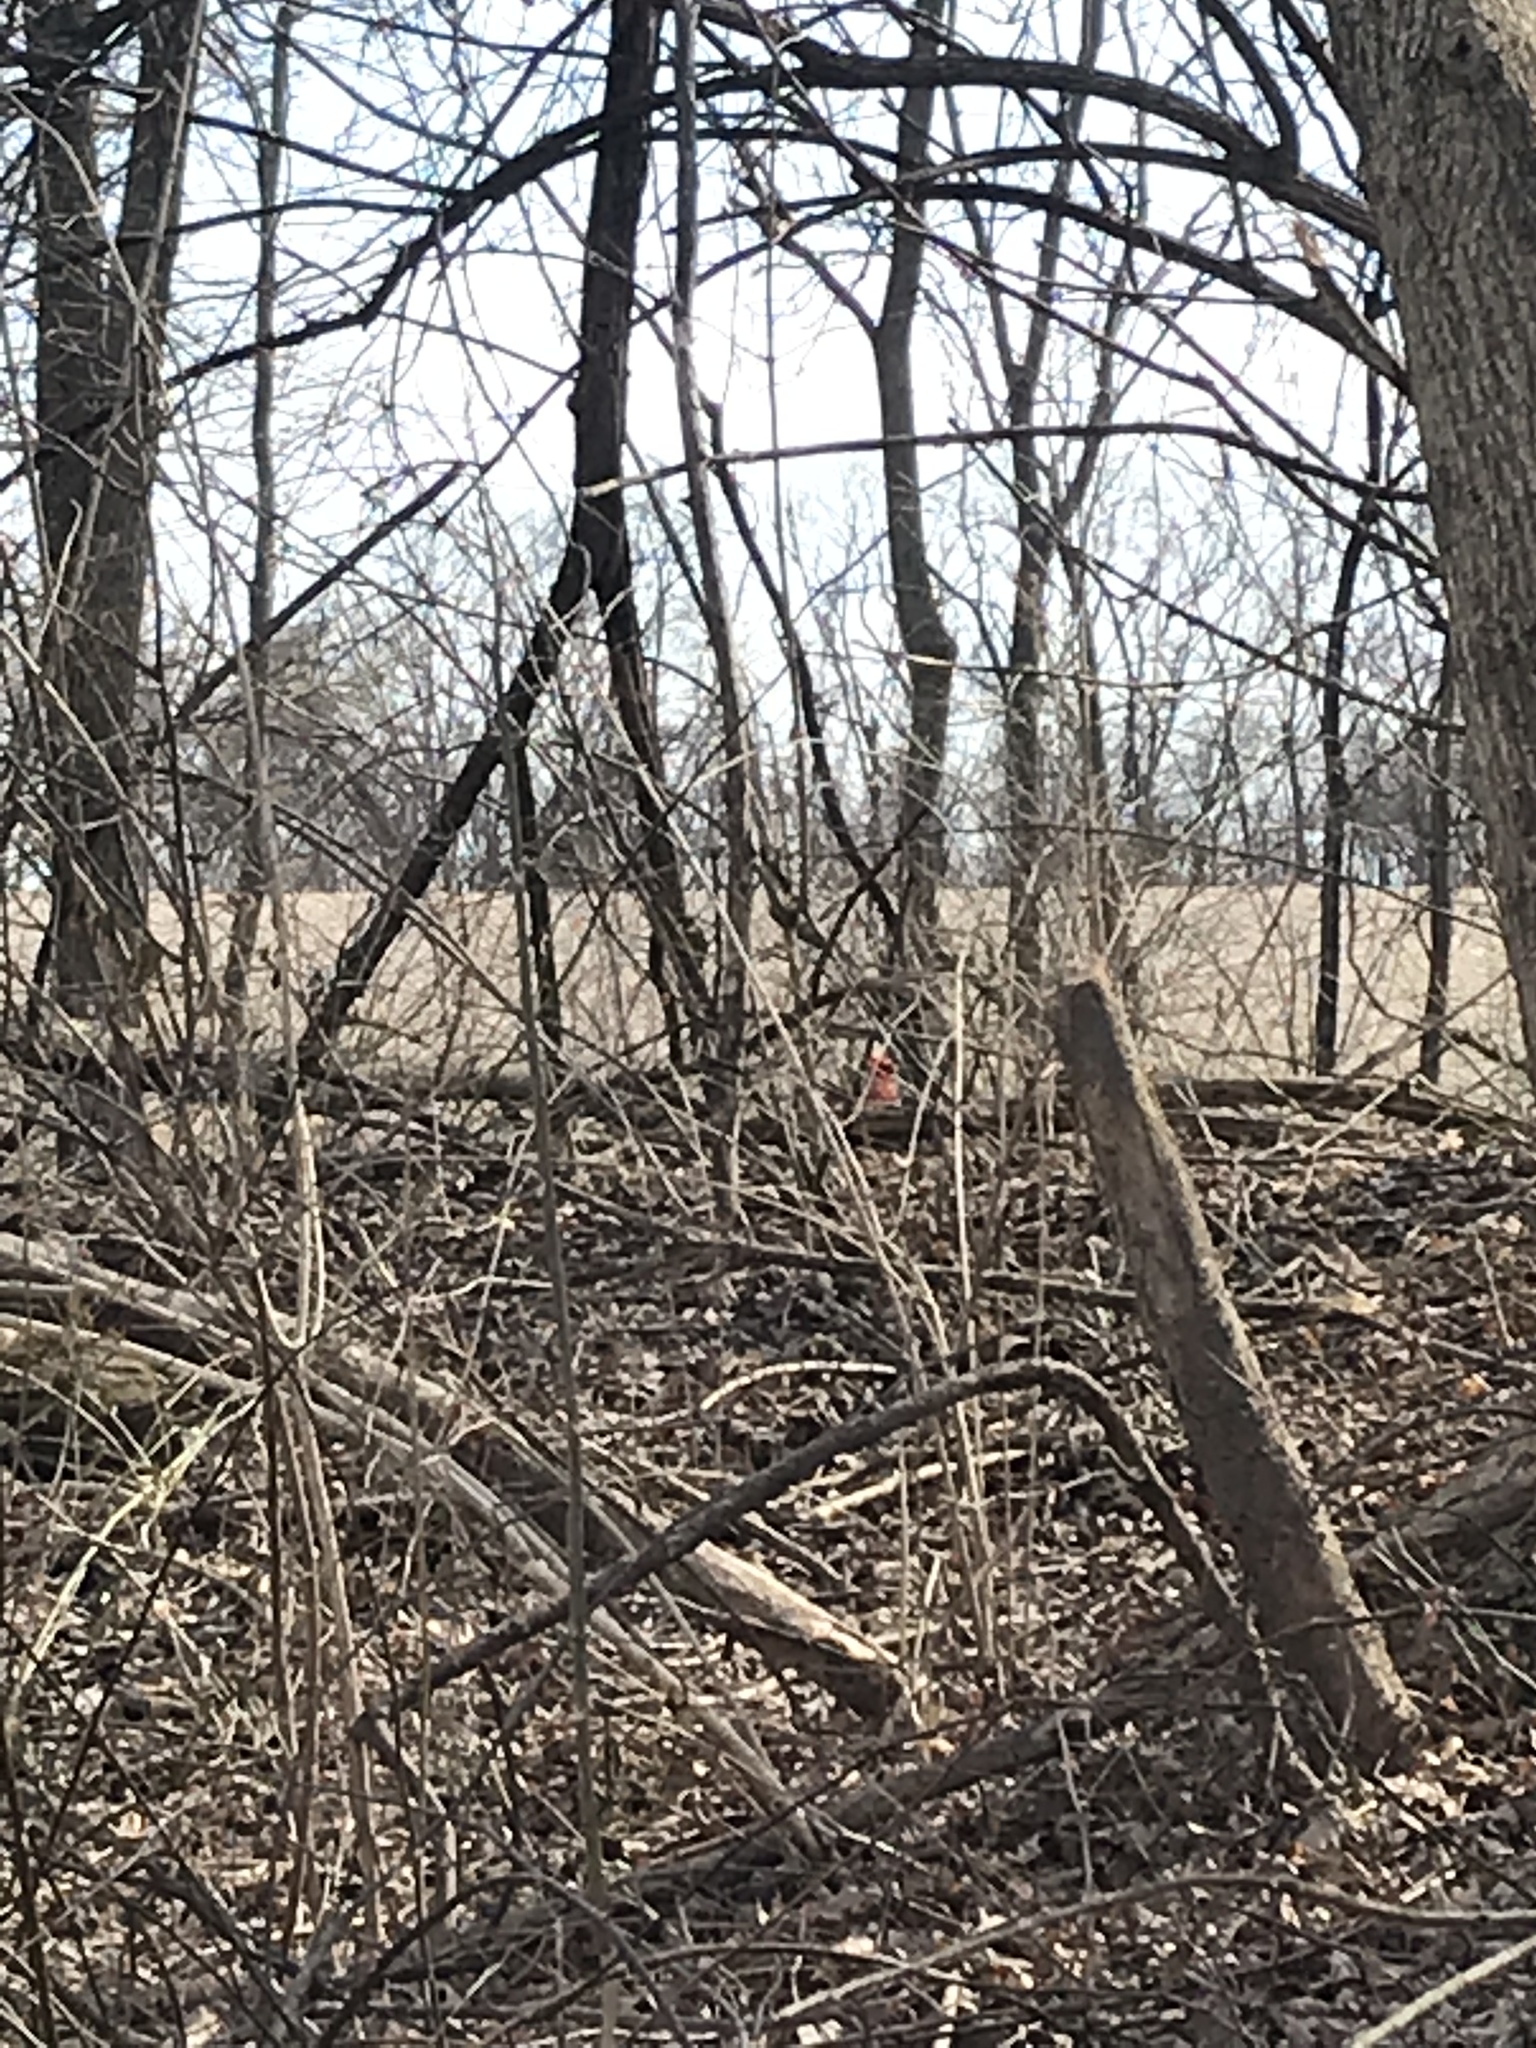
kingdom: Animalia
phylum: Chordata
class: Aves
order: Passeriformes
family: Cardinalidae
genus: Cardinalis
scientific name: Cardinalis cardinalis
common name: Northern cardinal
